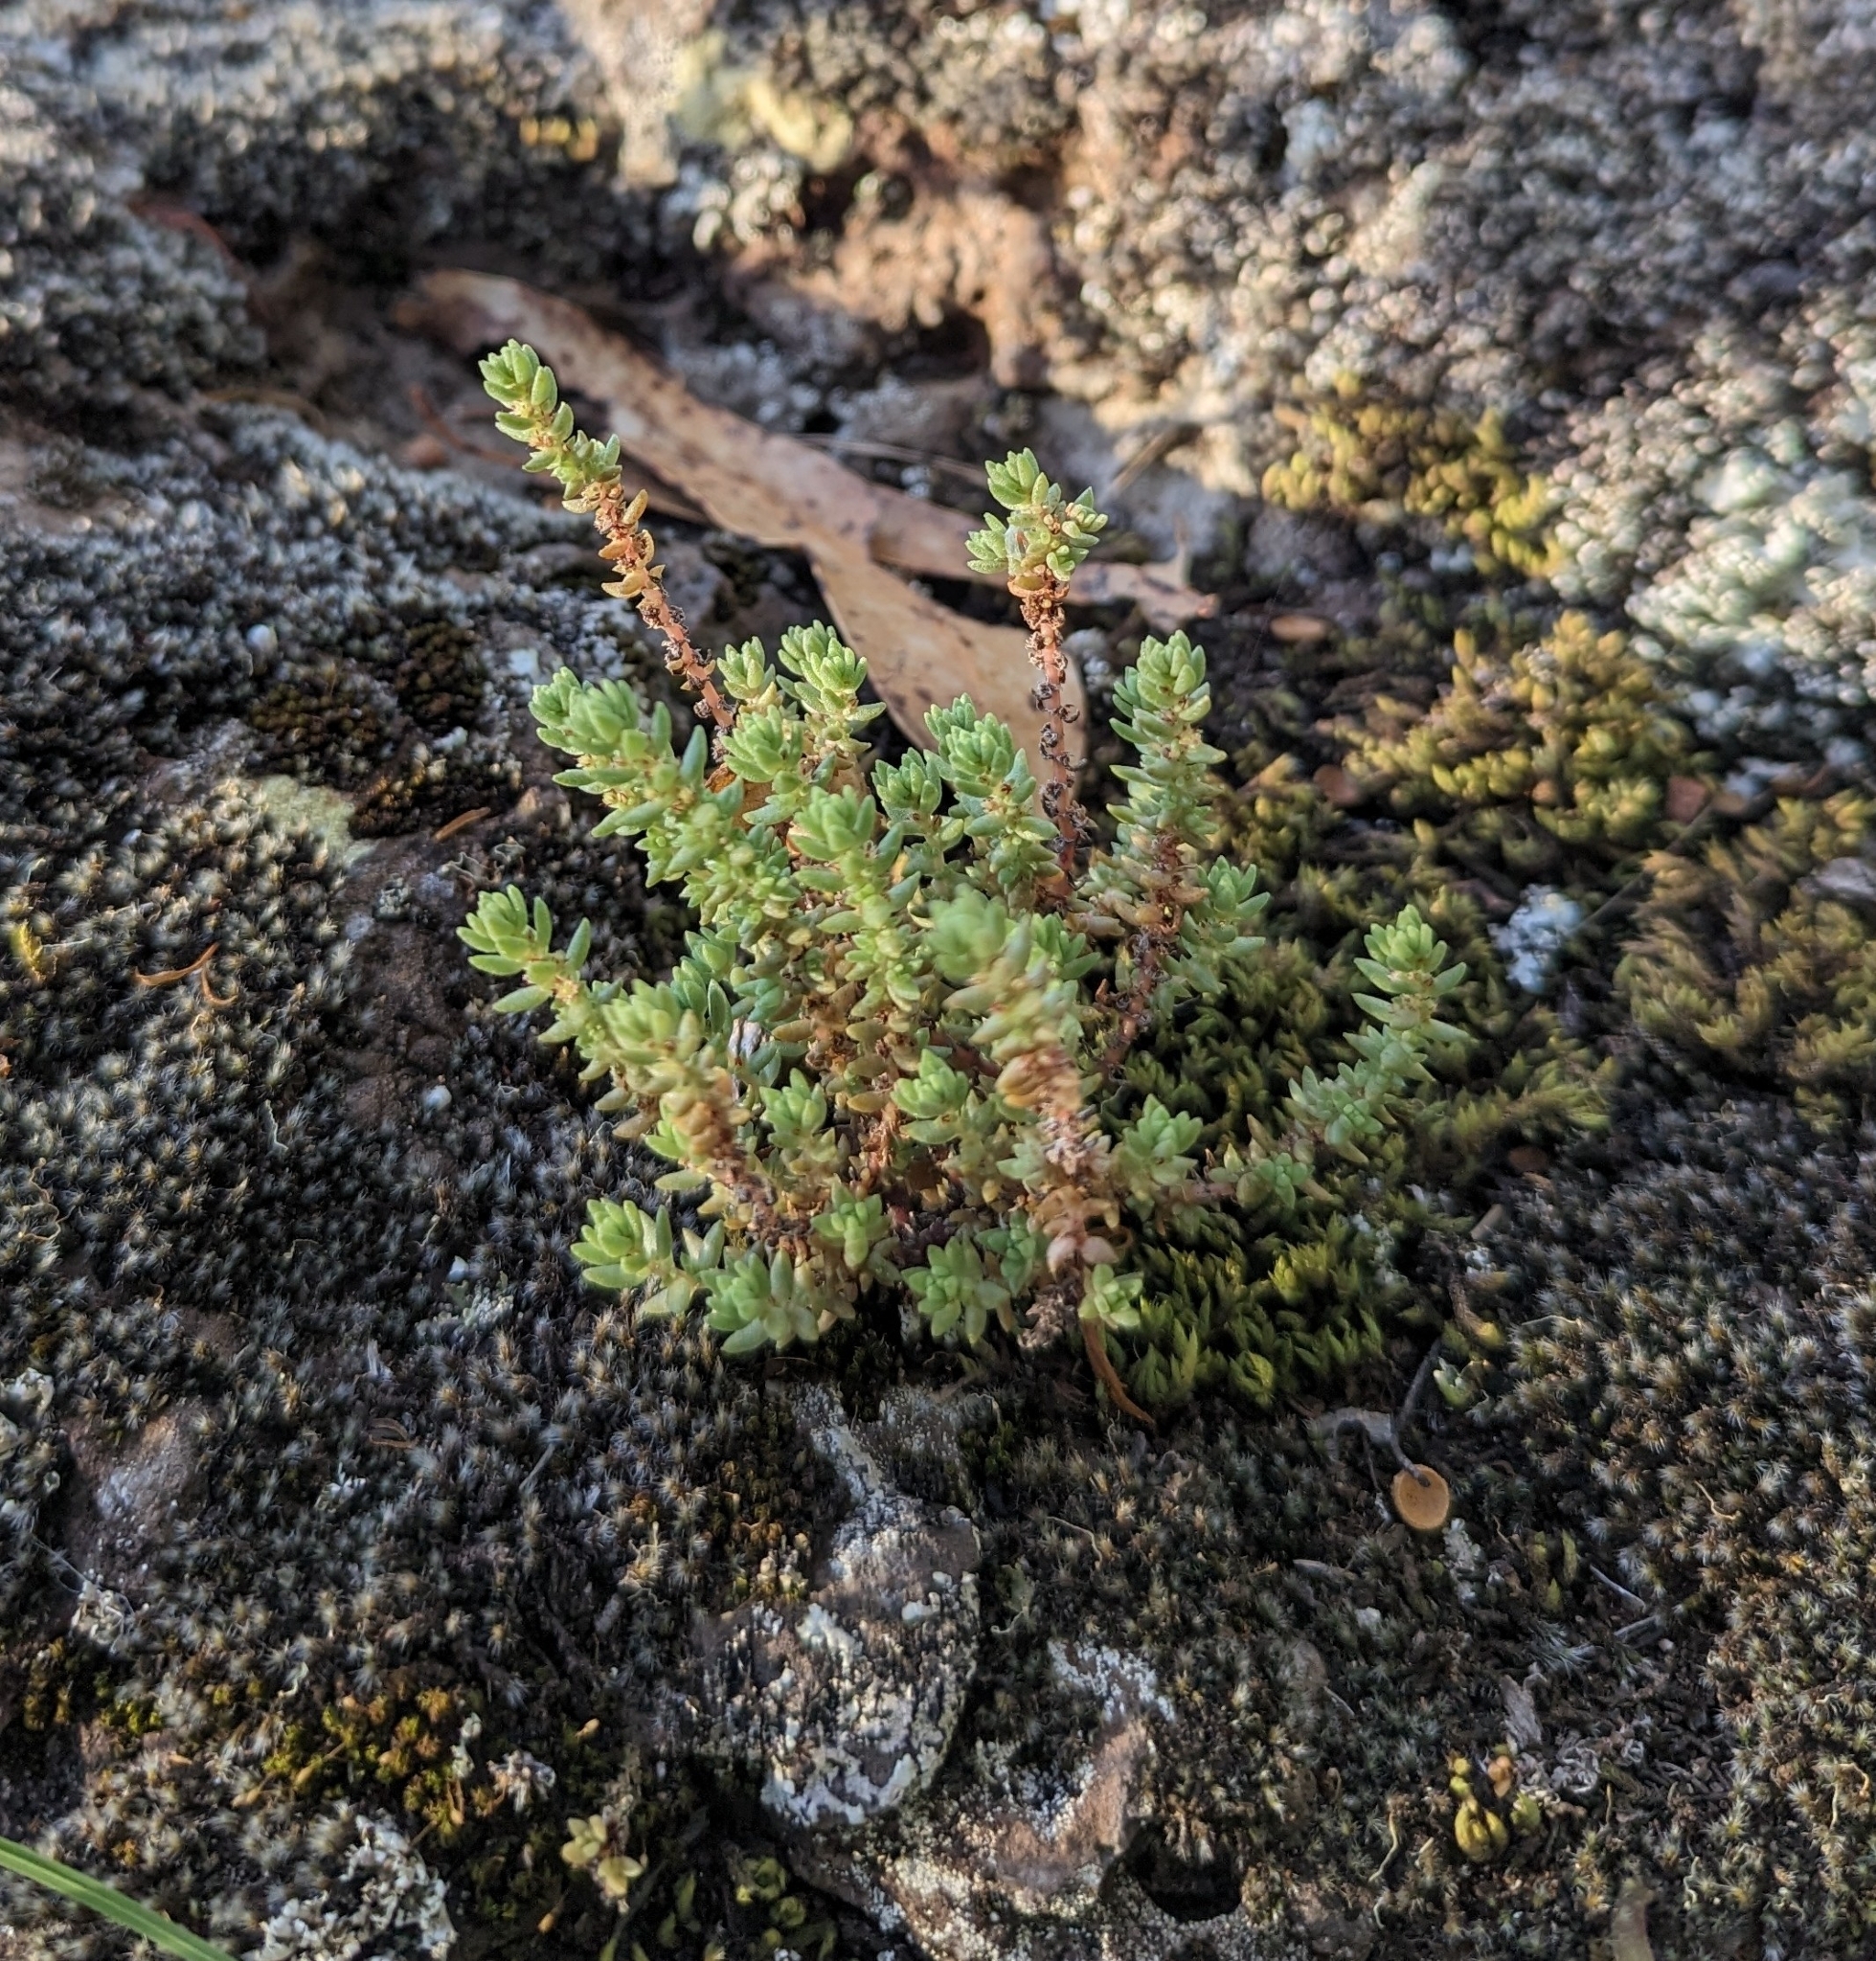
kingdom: Plantae
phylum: Tracheophyta
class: Magnoliopsida
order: Saxifragales
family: Crassulaceae
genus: Crassula
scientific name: Crassula sieberiana
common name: Siberian pygmyweed
